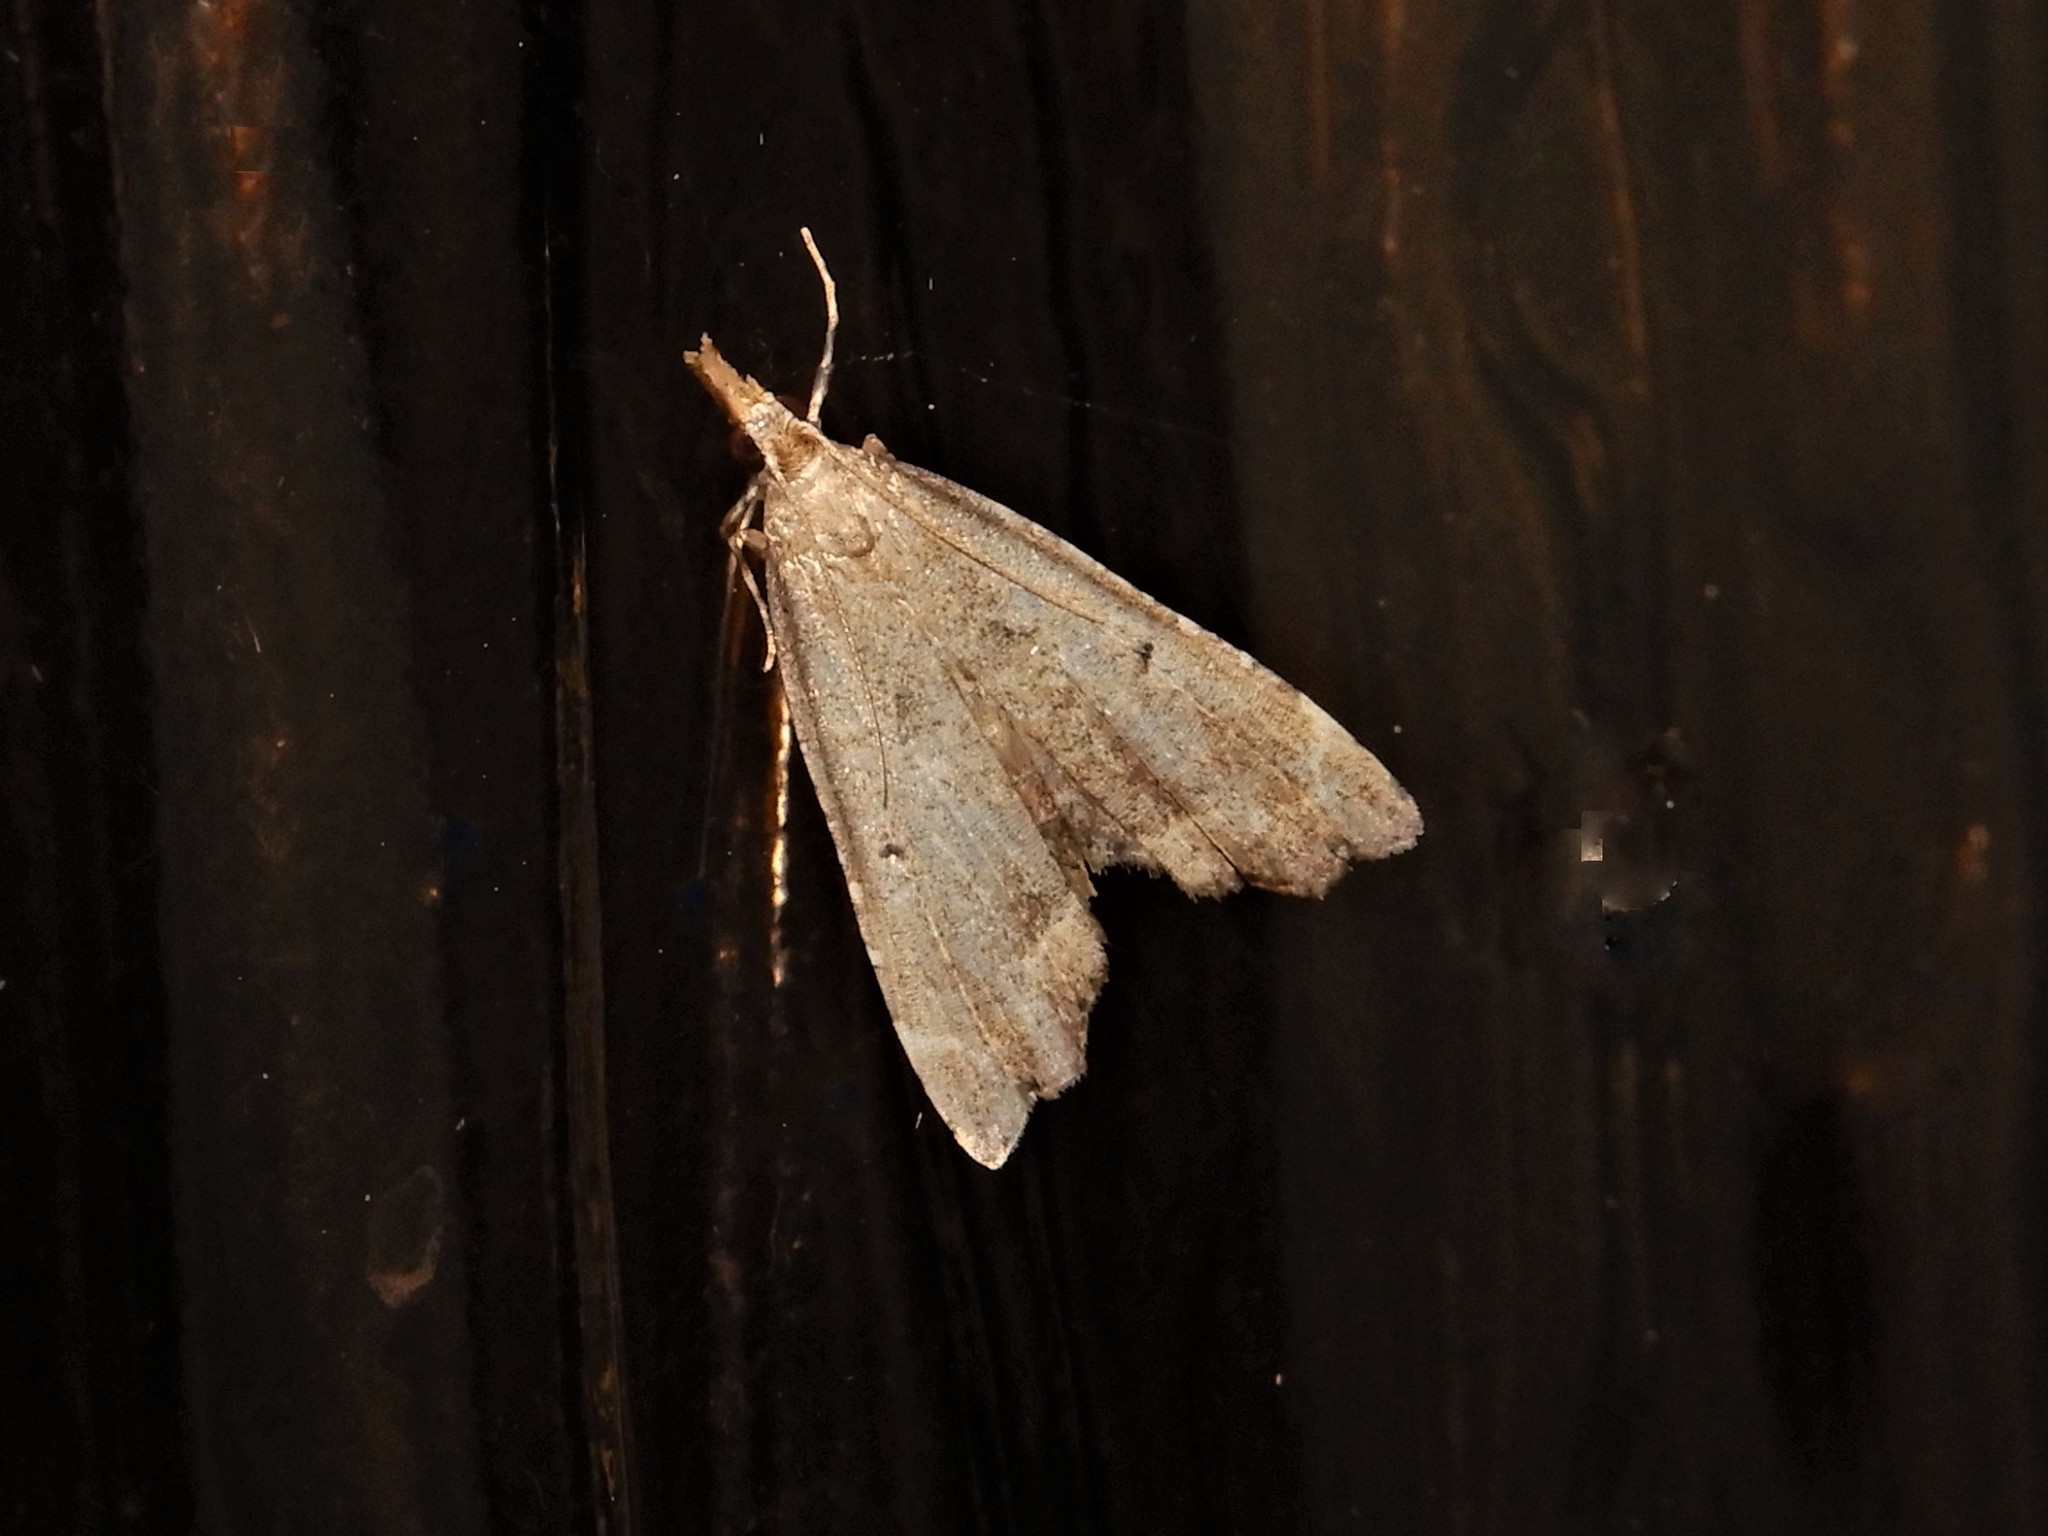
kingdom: Animalia
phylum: Arthropoda
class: Insecta
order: Lepidoptera
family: Crambidae
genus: Diplopseustis
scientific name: Diplopseustis perieresalis
